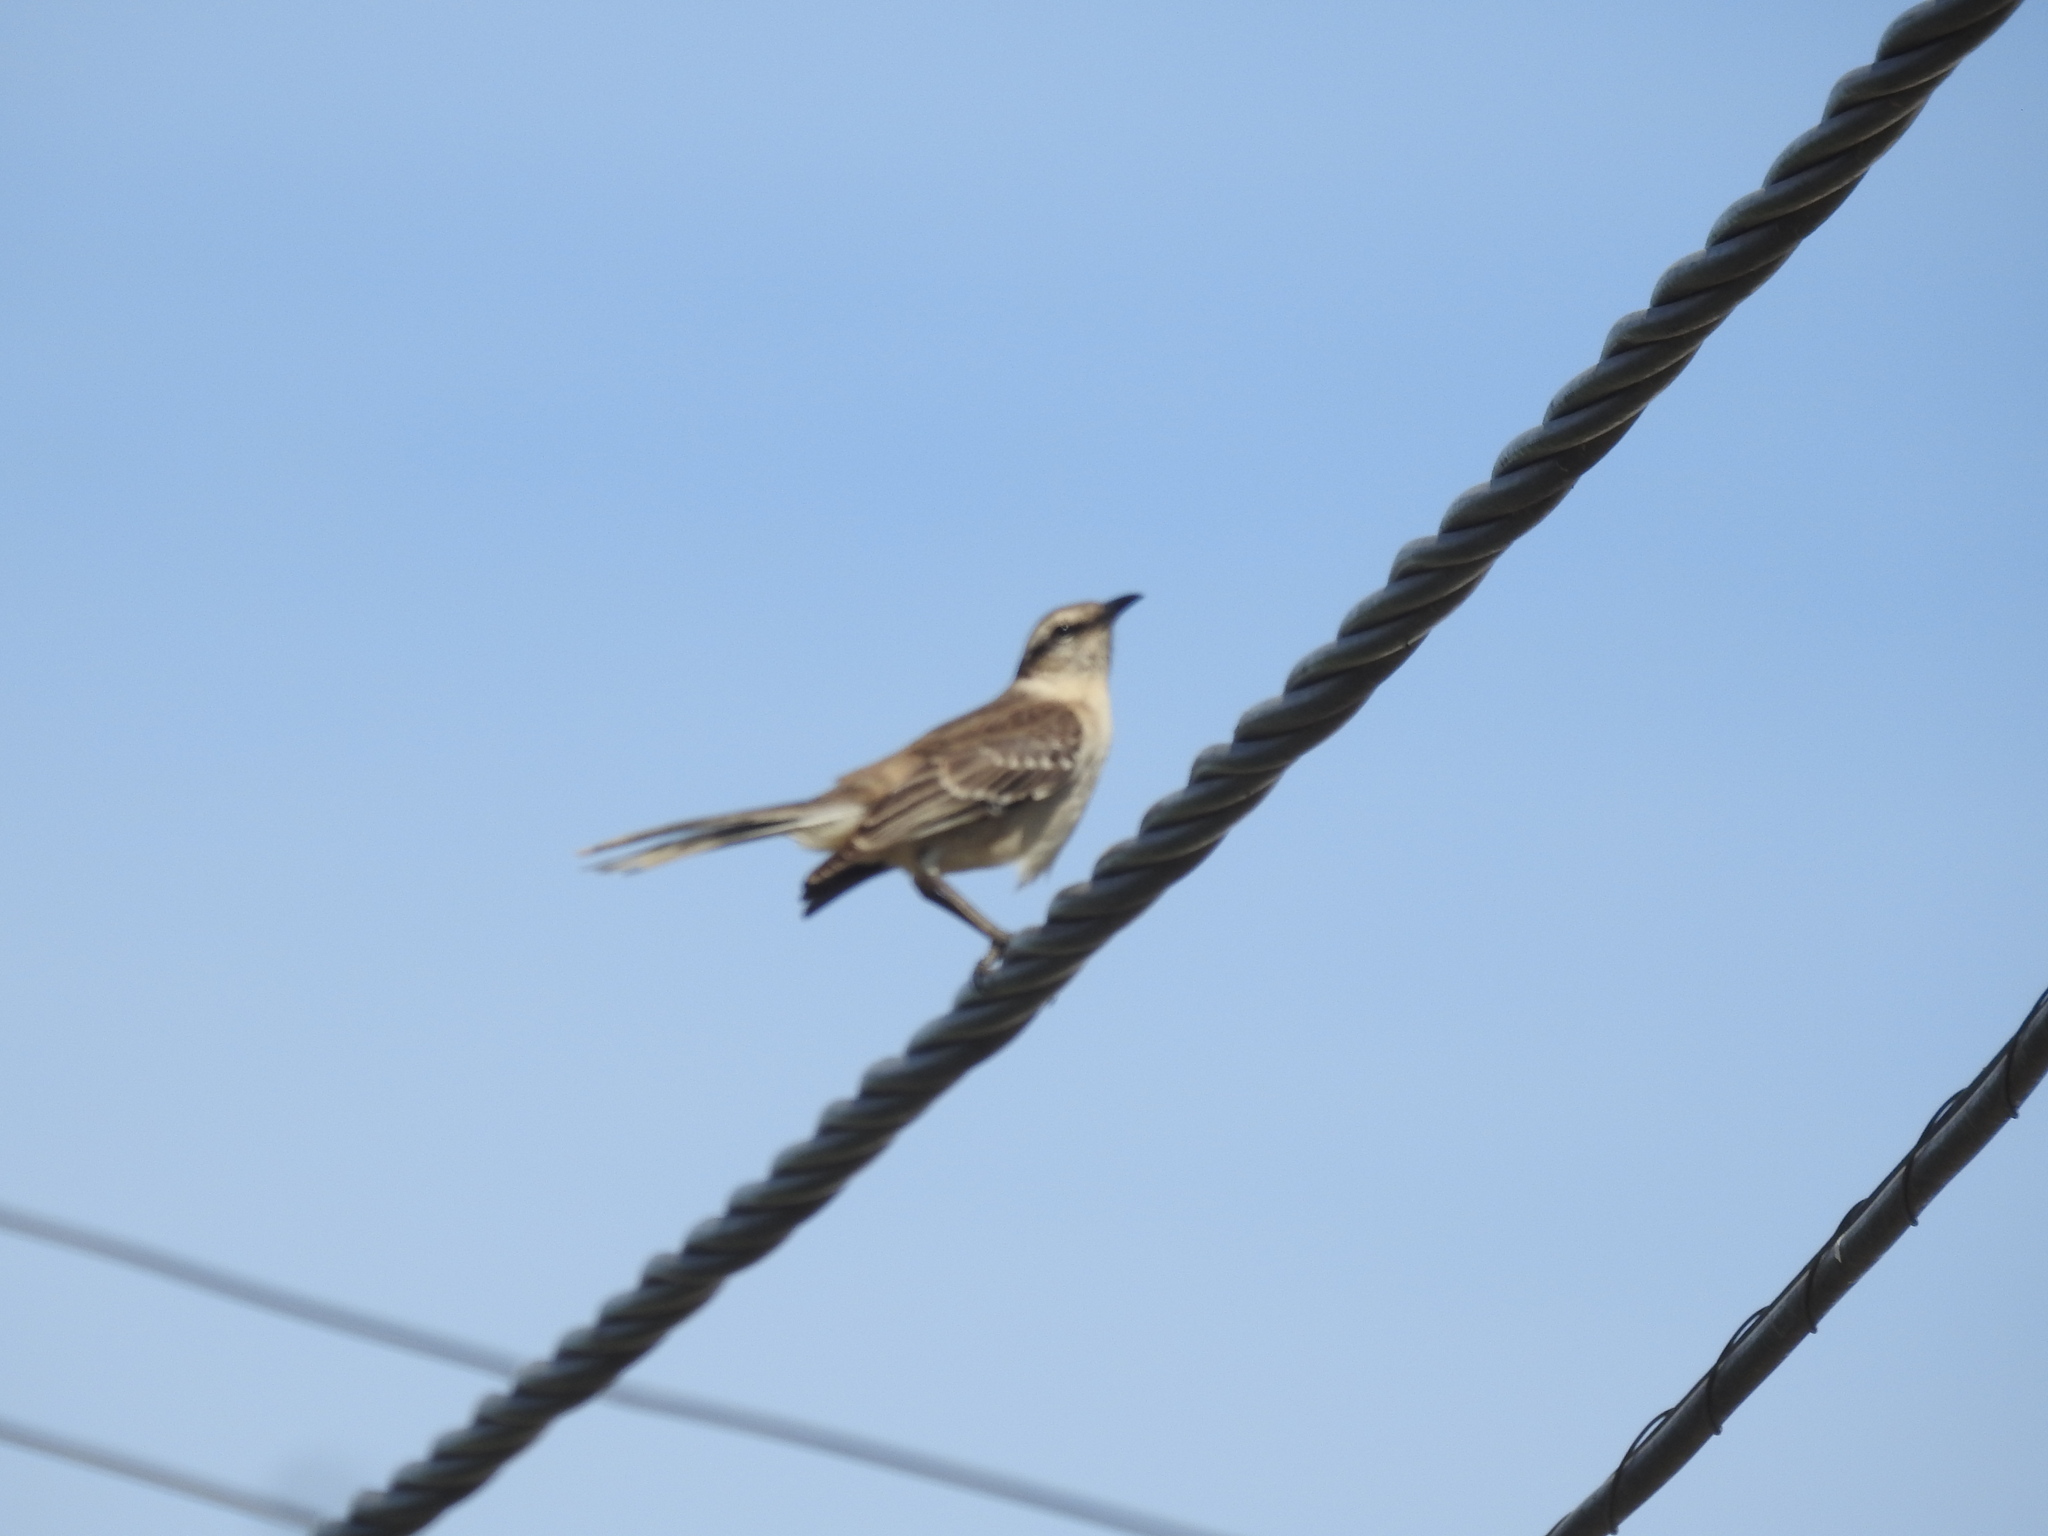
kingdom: Animalia
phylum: Chordata
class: Aves
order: Passeriformes
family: Mimidae
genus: Mimus
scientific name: Mimus saturninus
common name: Chalk-browed mockingbird
